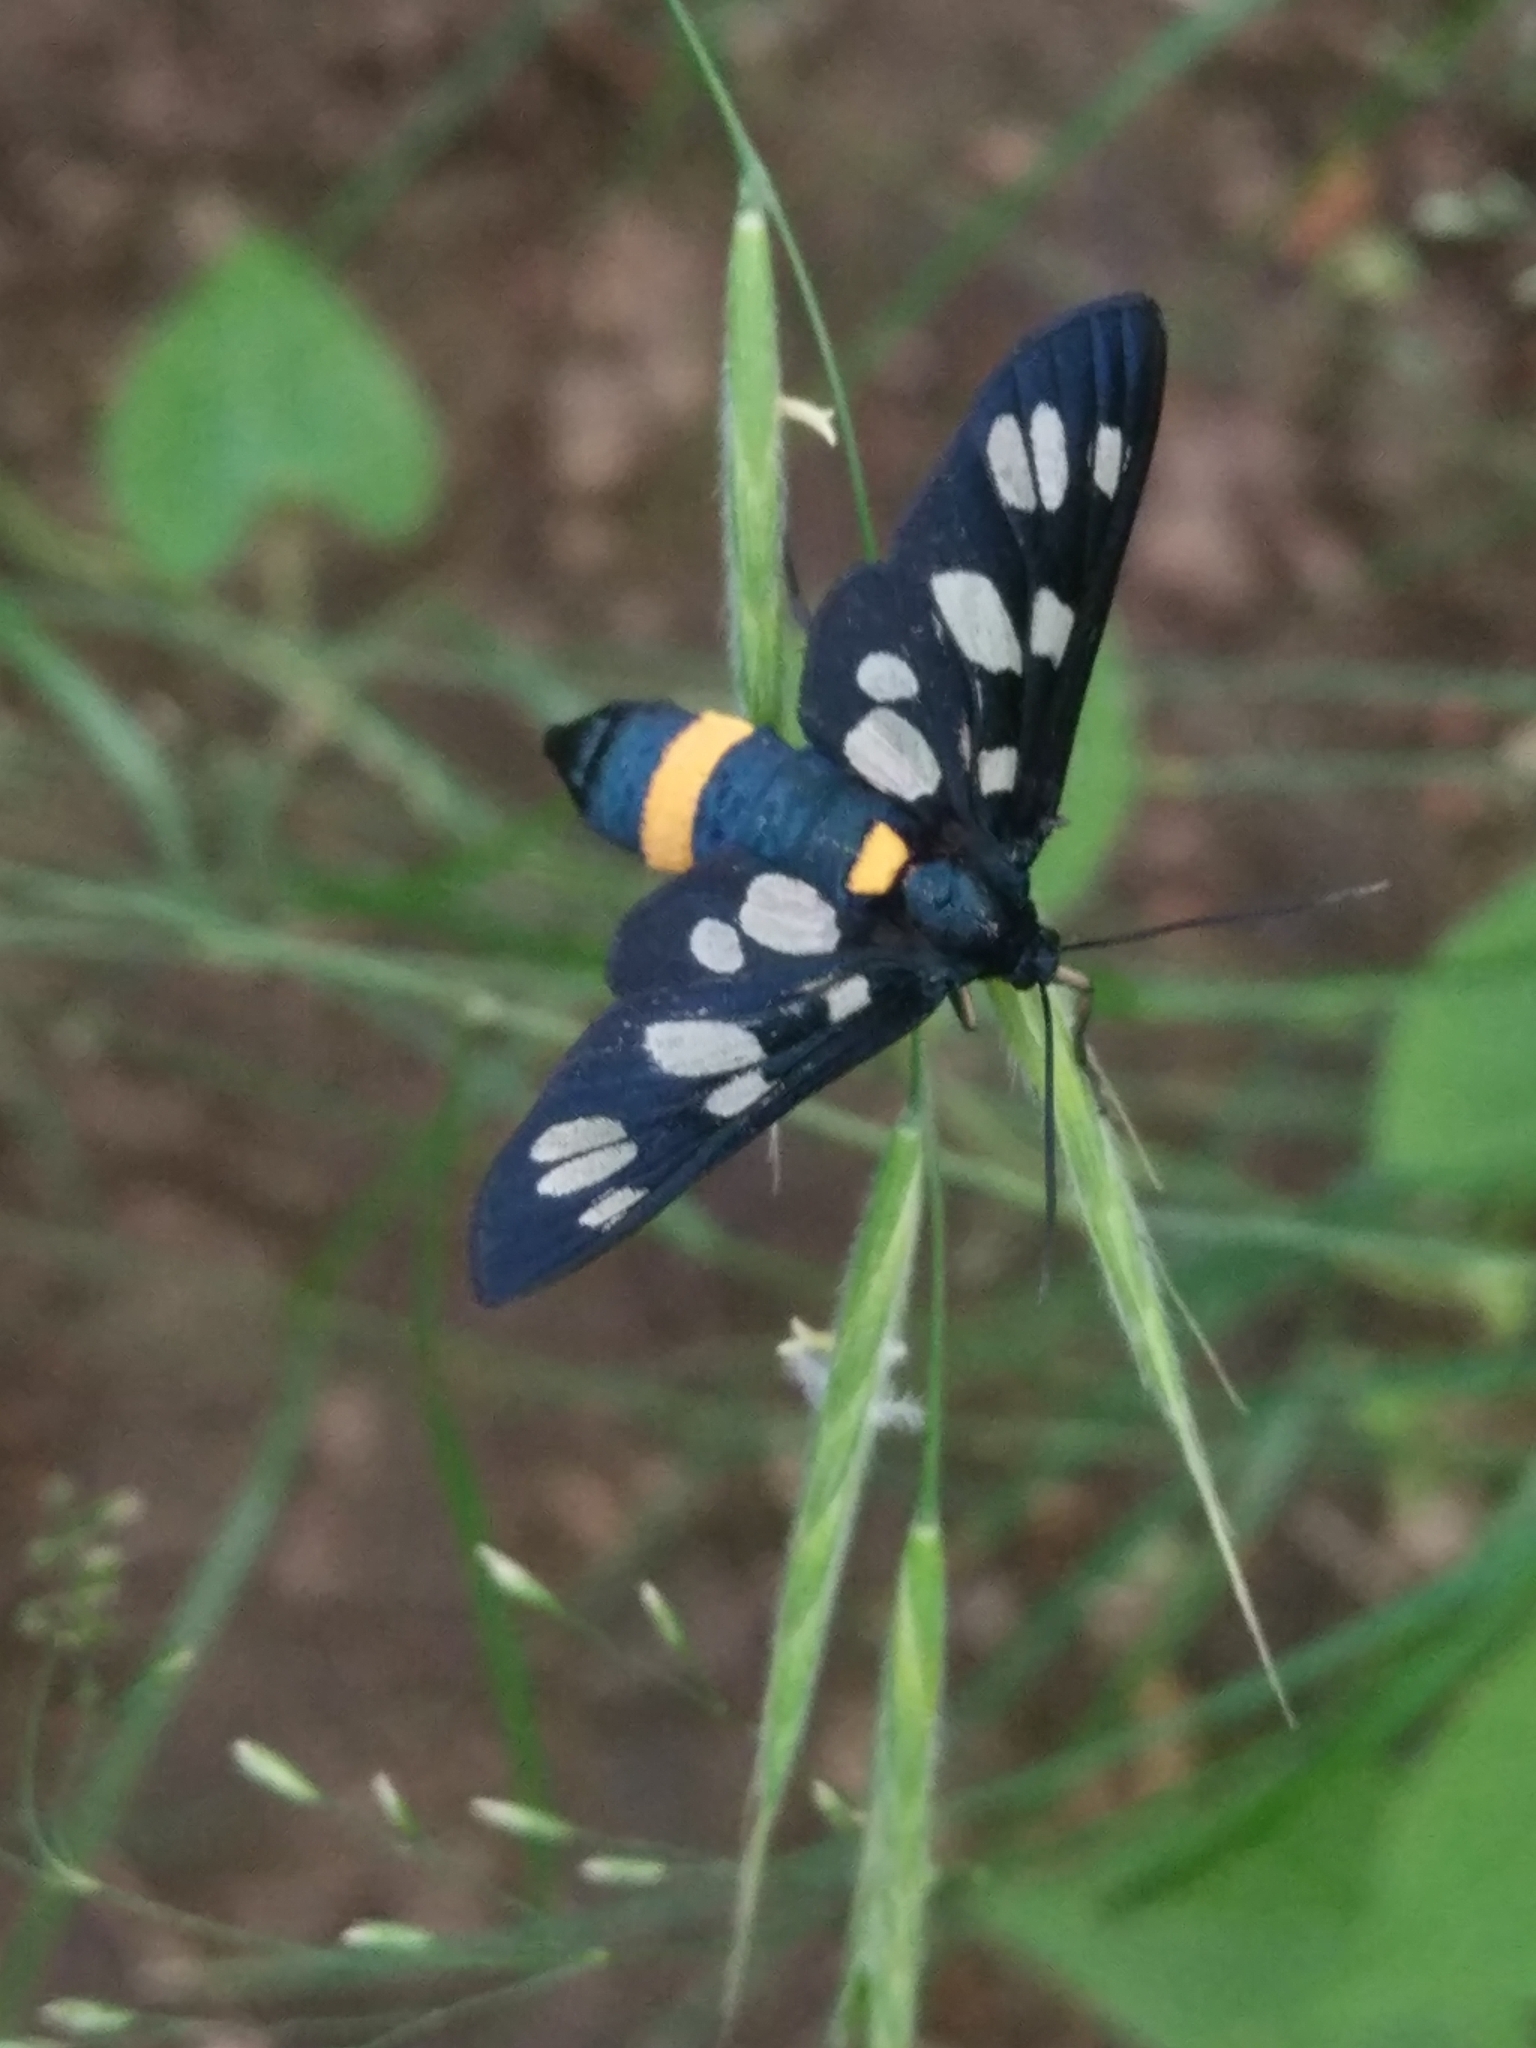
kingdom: Animalia
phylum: Arthropoda
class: Insecta
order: Lepidoptera
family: Erebidae
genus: Amata
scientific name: Amata nigricornis
